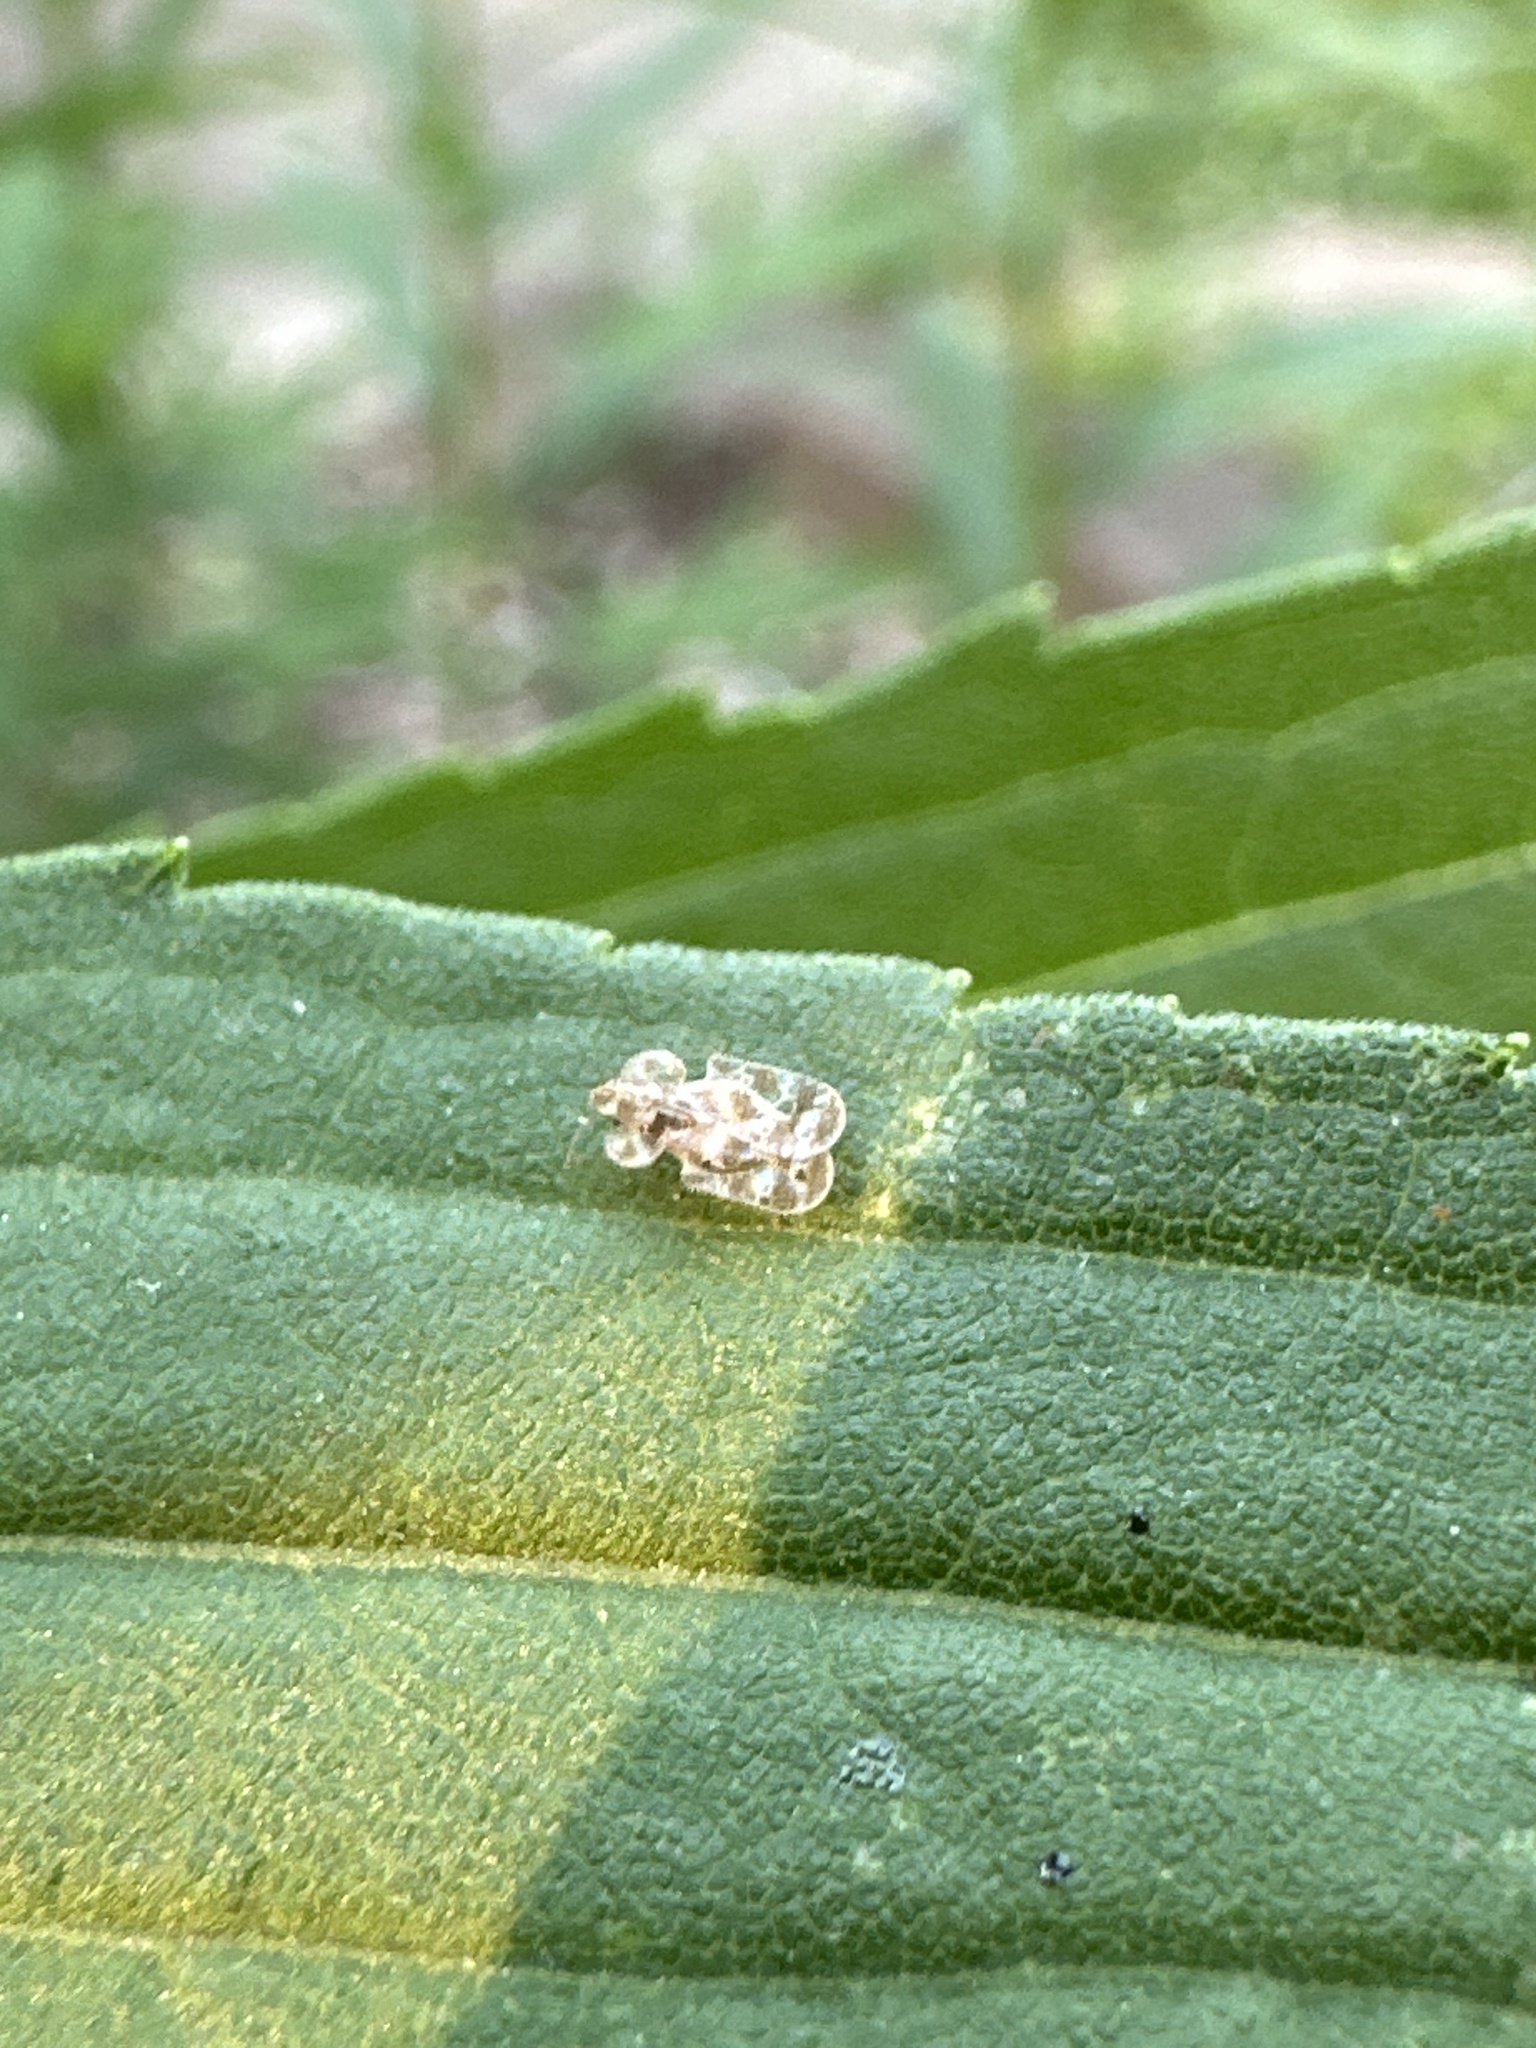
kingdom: Animalia
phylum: Arthropoda
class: Insecta
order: Hemiptera
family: Tingidae
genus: Corythucha
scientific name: Corythucha marmorata
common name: Chrysanthemum lace bug
